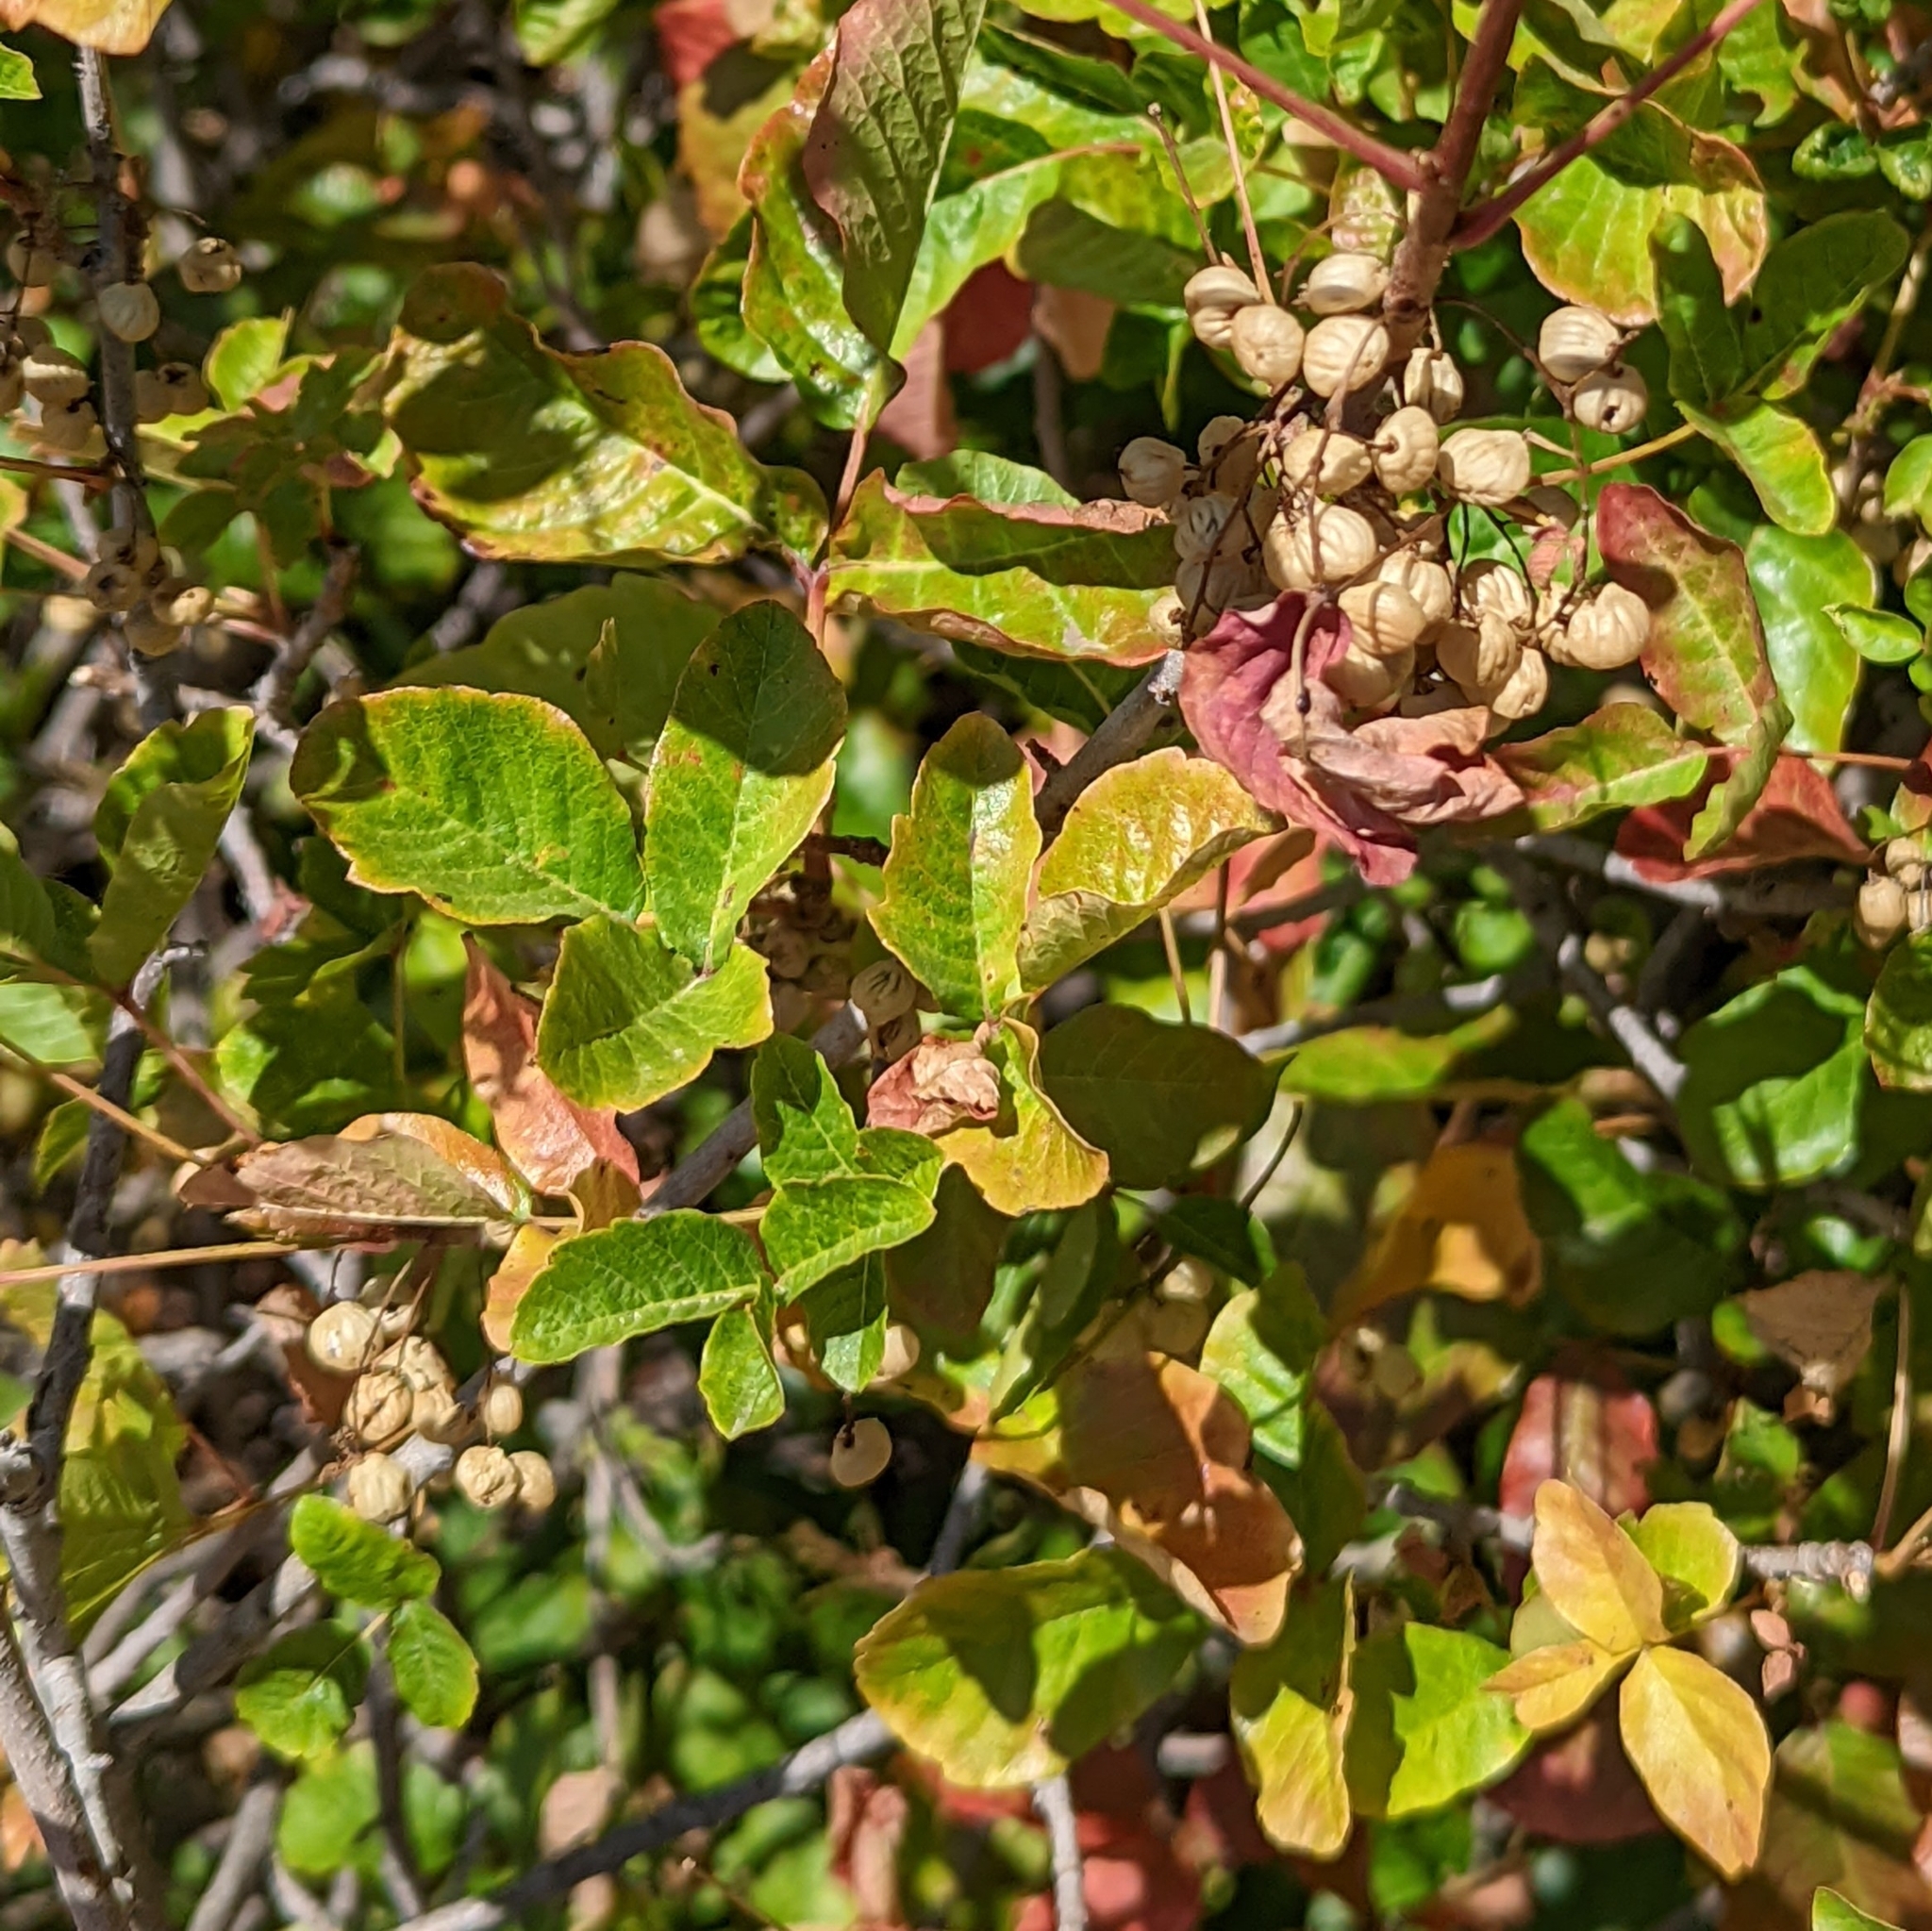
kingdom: Plantae
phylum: Tracheophyta
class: Magnoliopsida
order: Sapindales
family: Anacardiaceae
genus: Toxicodendron
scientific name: Toxicodendron diversilobum
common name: Pacific poison-oak
